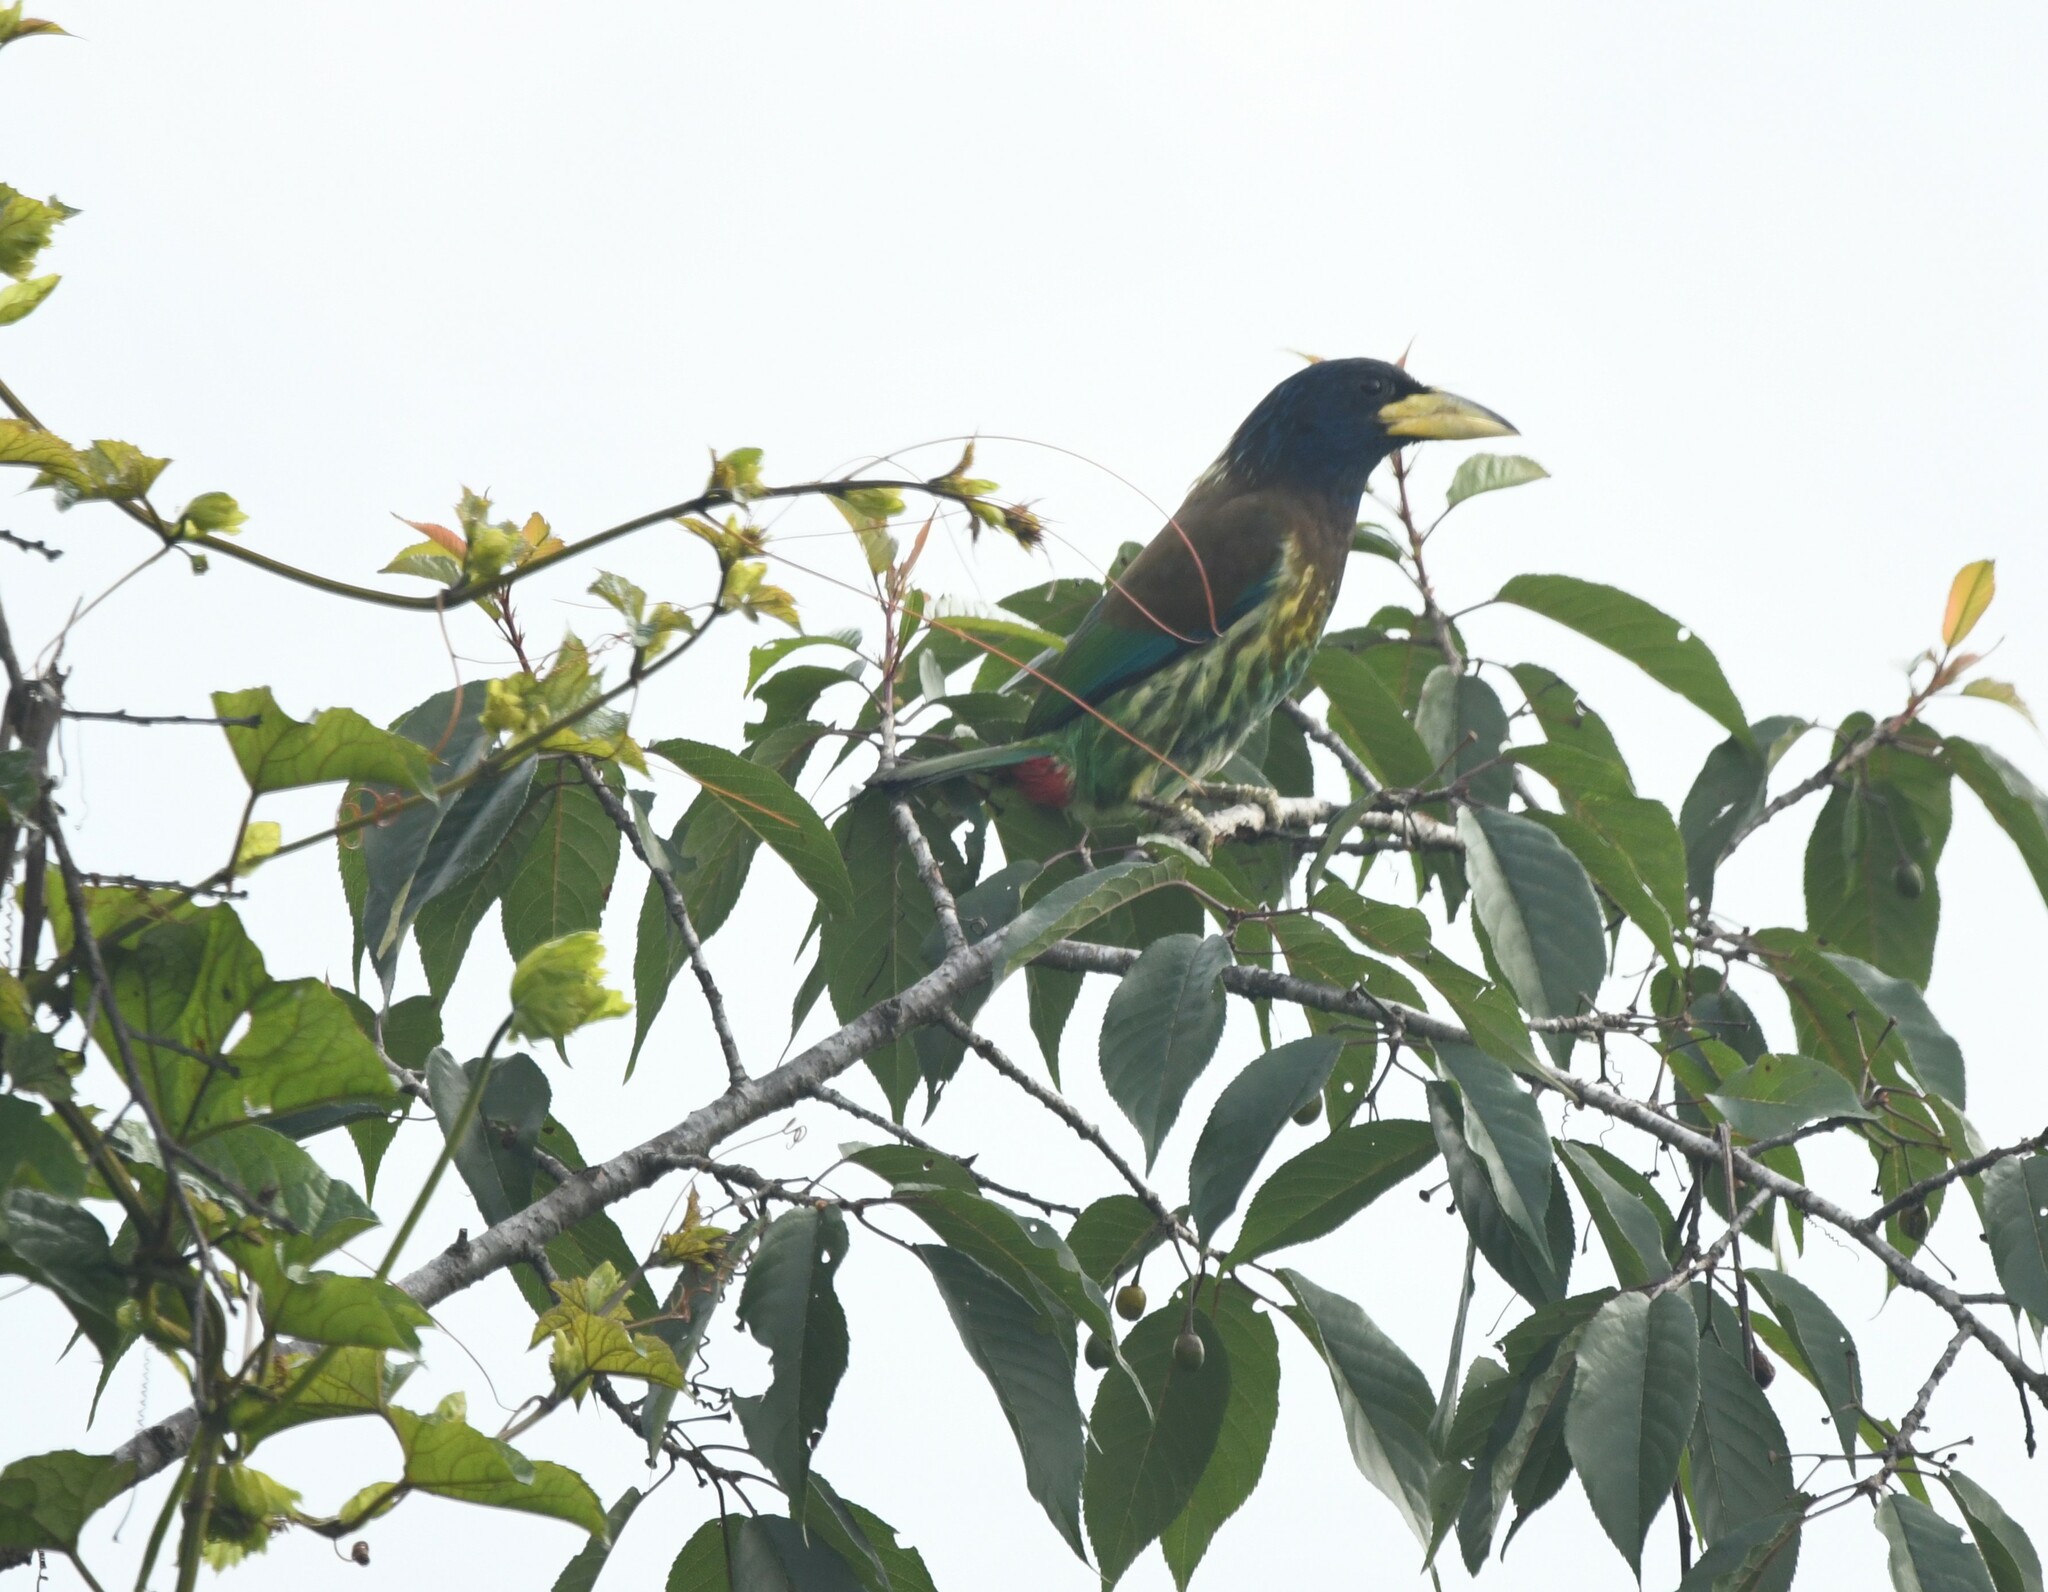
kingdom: Animalia
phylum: Chordata
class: Aves
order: Piciformes
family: Megalaimidae
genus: Psilopogon
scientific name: Psilopogon virens
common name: Great barbet
